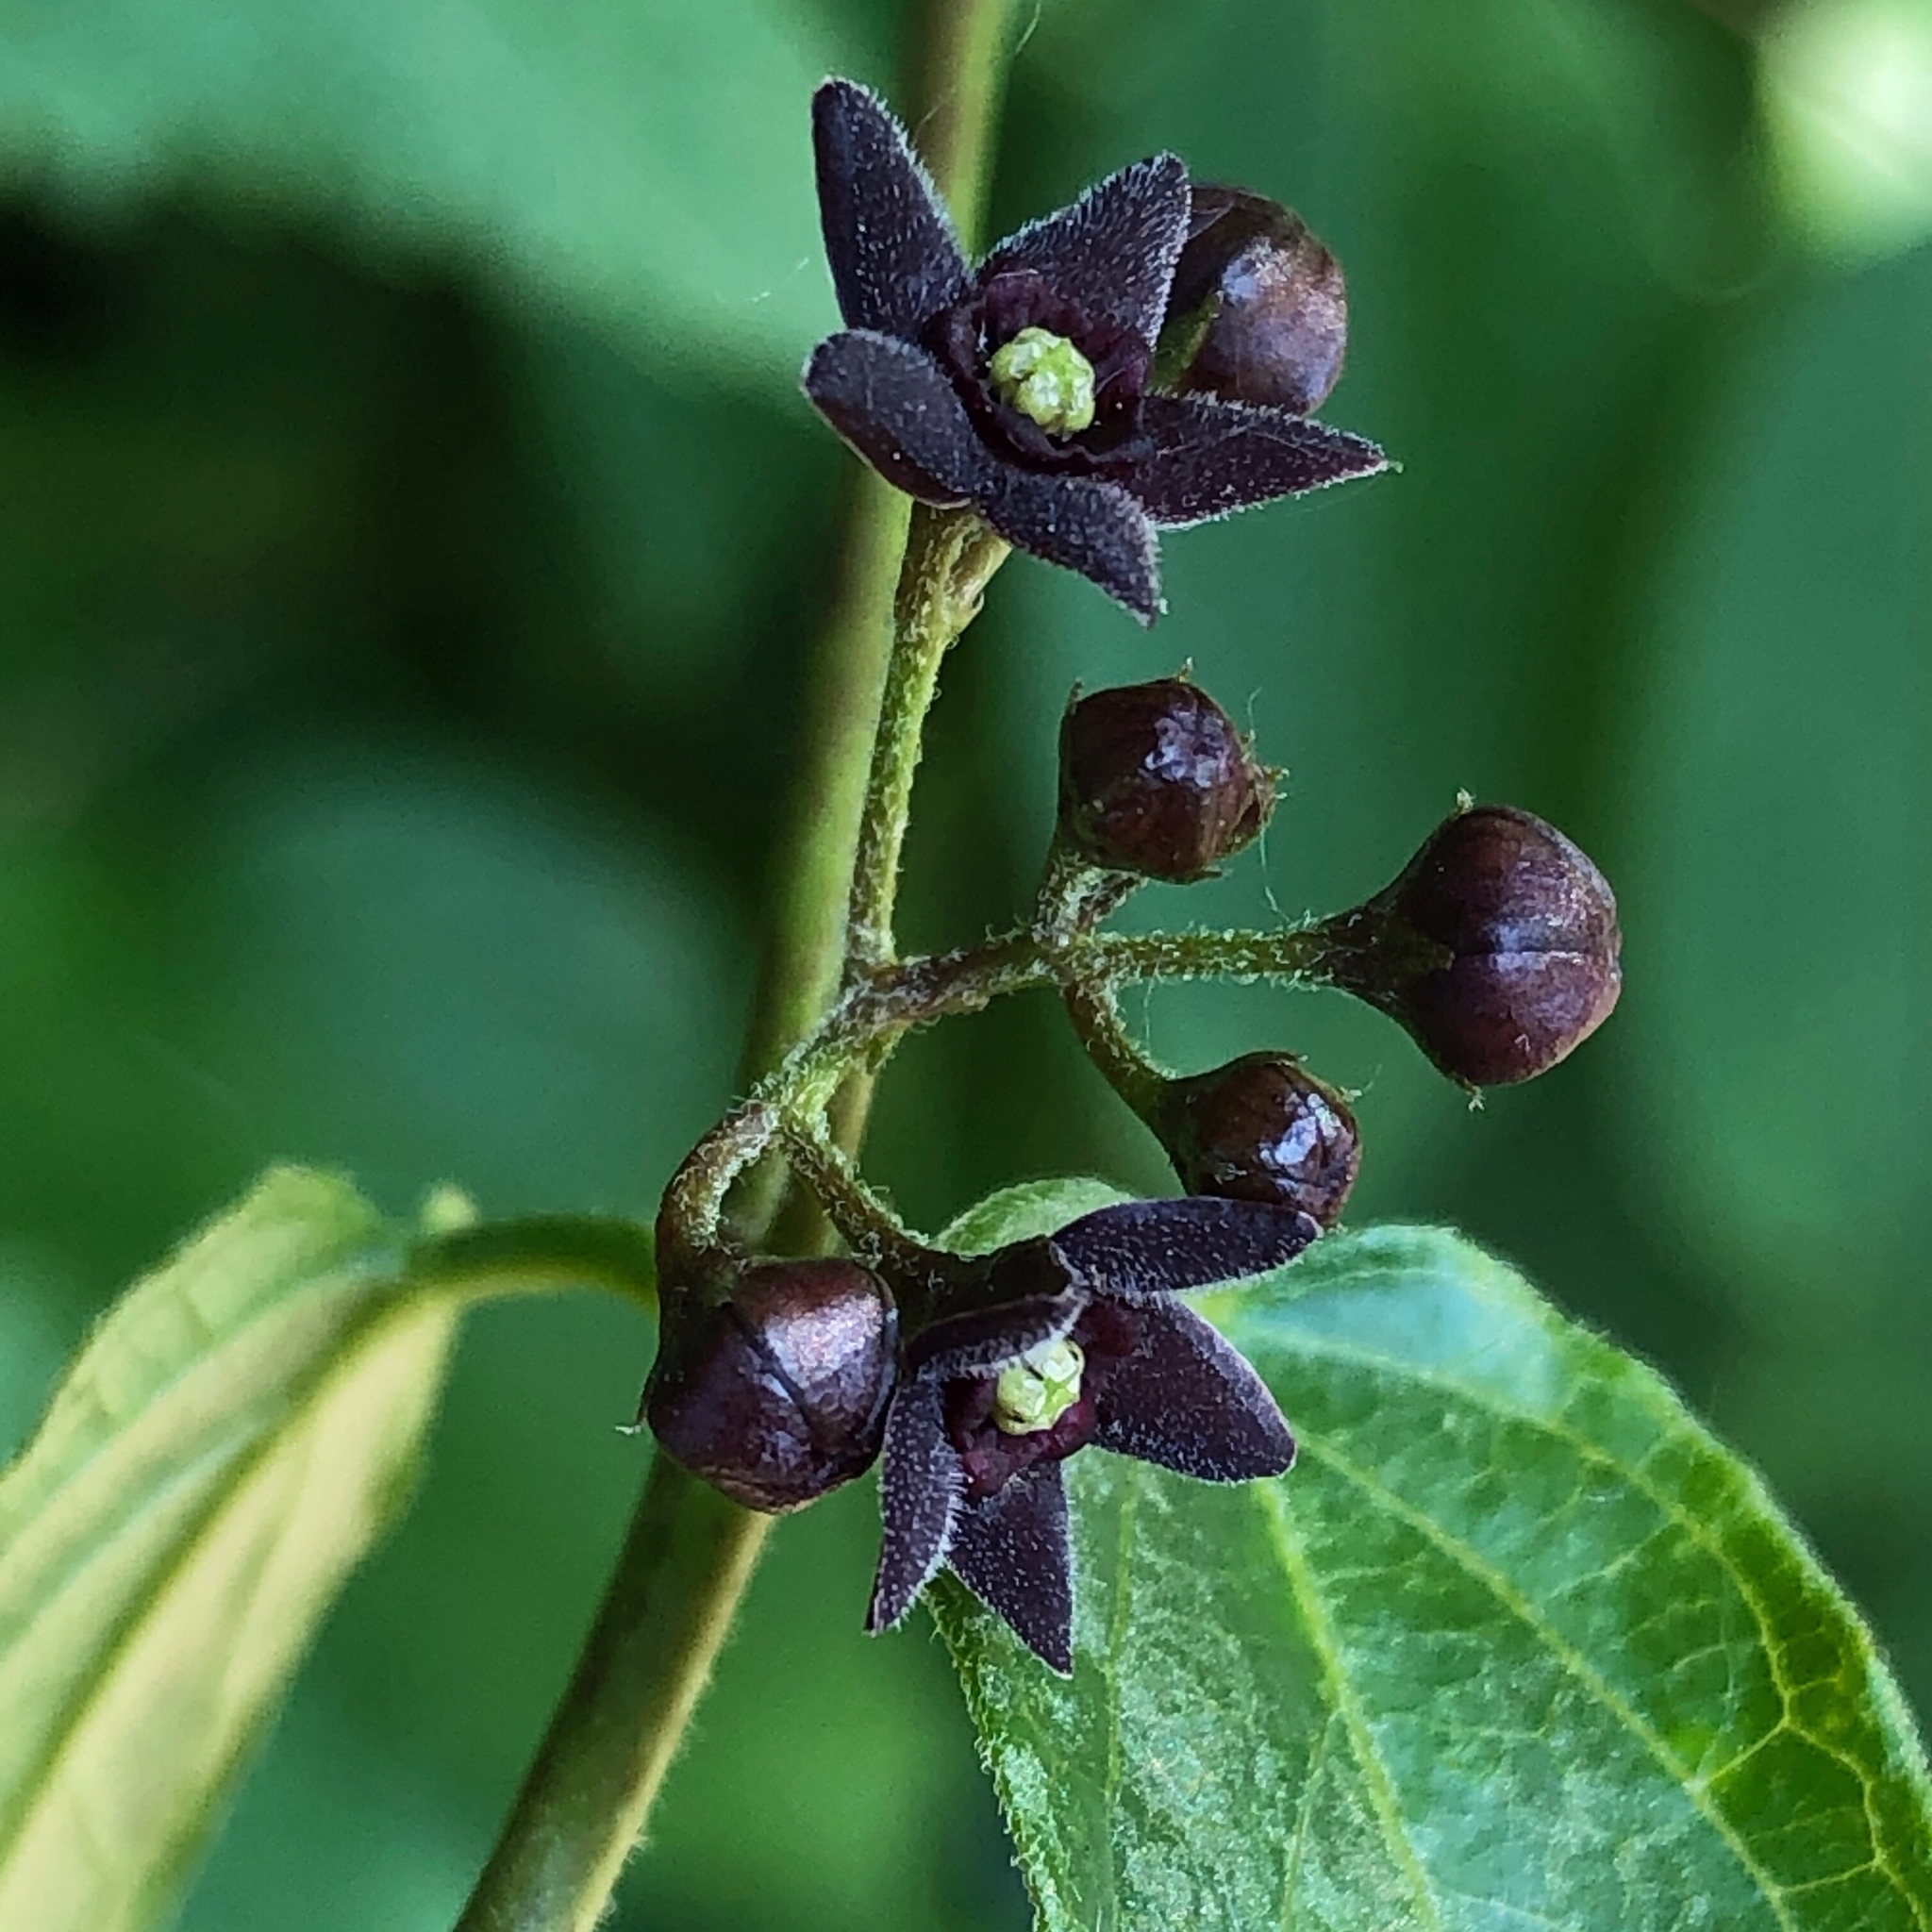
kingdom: Plantae
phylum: Tracheophyta
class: Magnoliopsida
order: Gentianales
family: Apocynaceae
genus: Vincetoxicum
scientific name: Vincetoxicum nigrum
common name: Black swallow-wort
